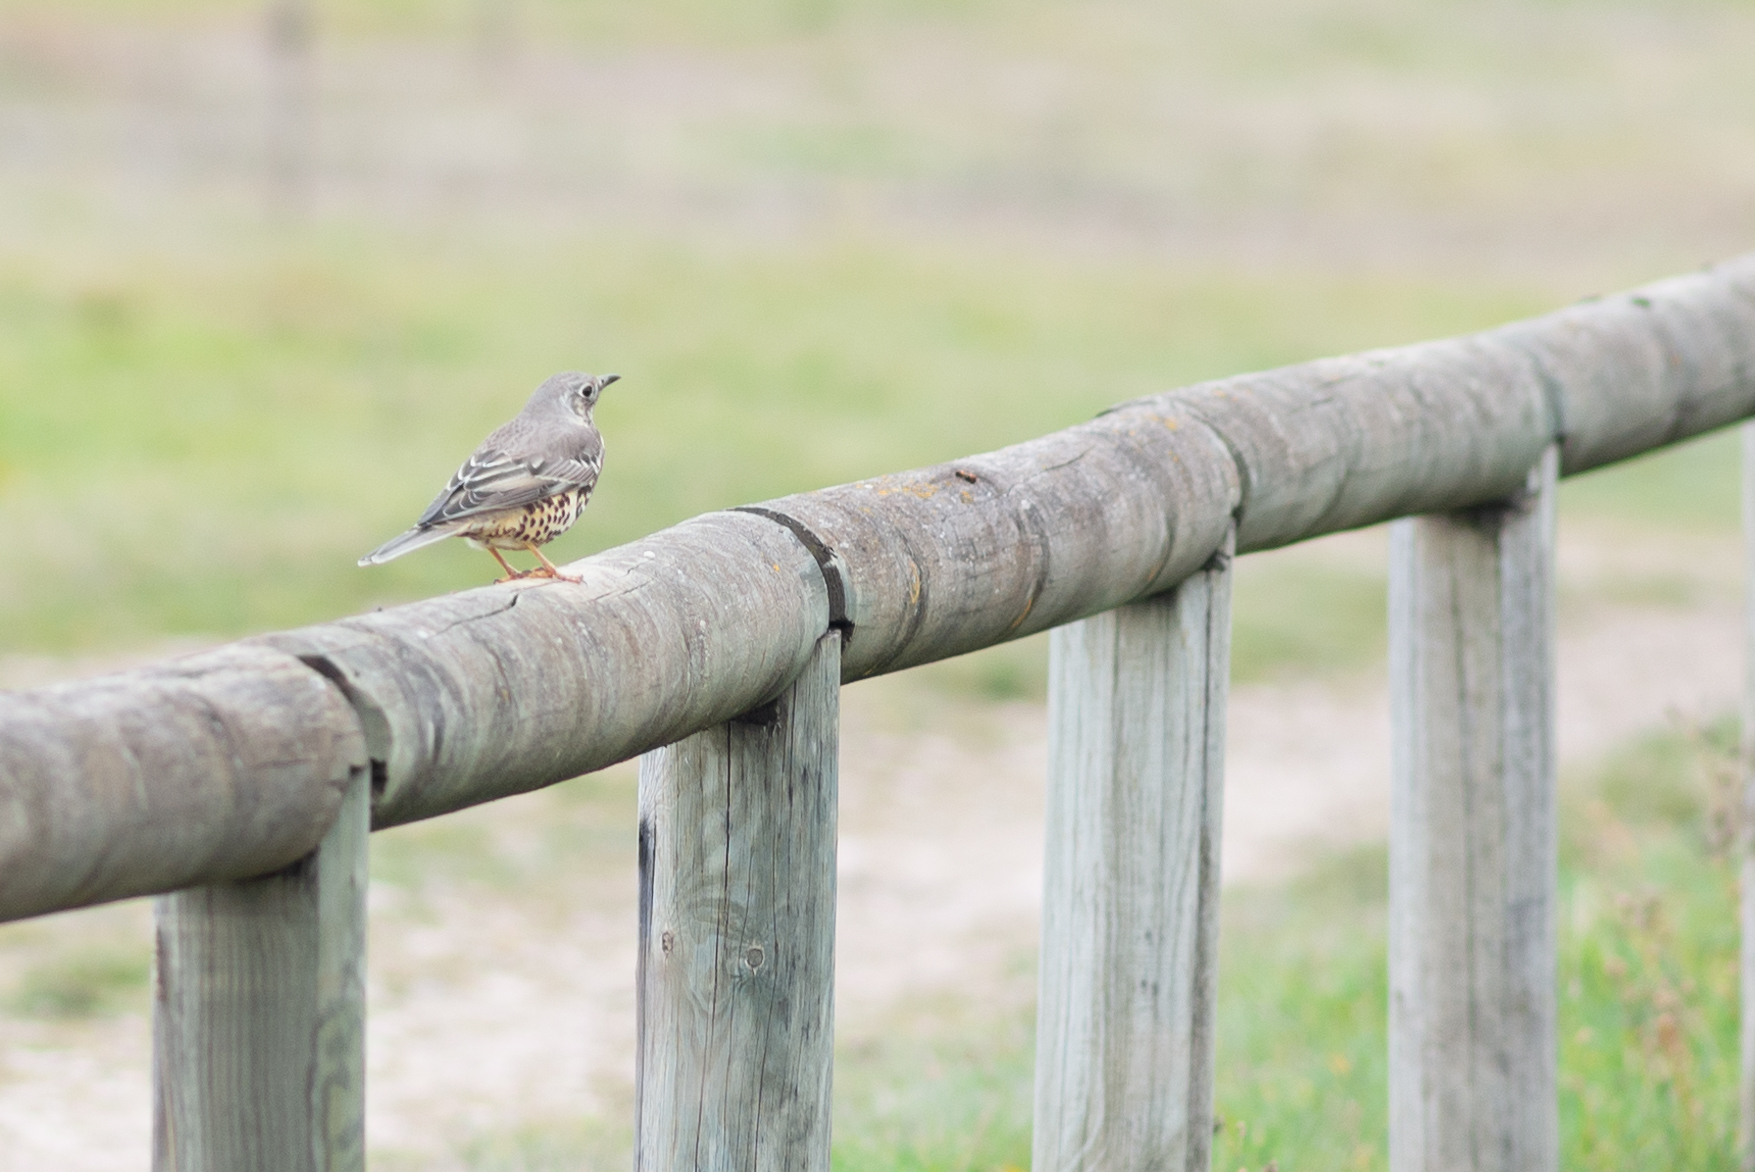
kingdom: Animalia
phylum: Chordata
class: Aves
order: Passeriformes
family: Turdidae
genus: Turdus
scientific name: Turdus viscivorus
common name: Mistle thrush
